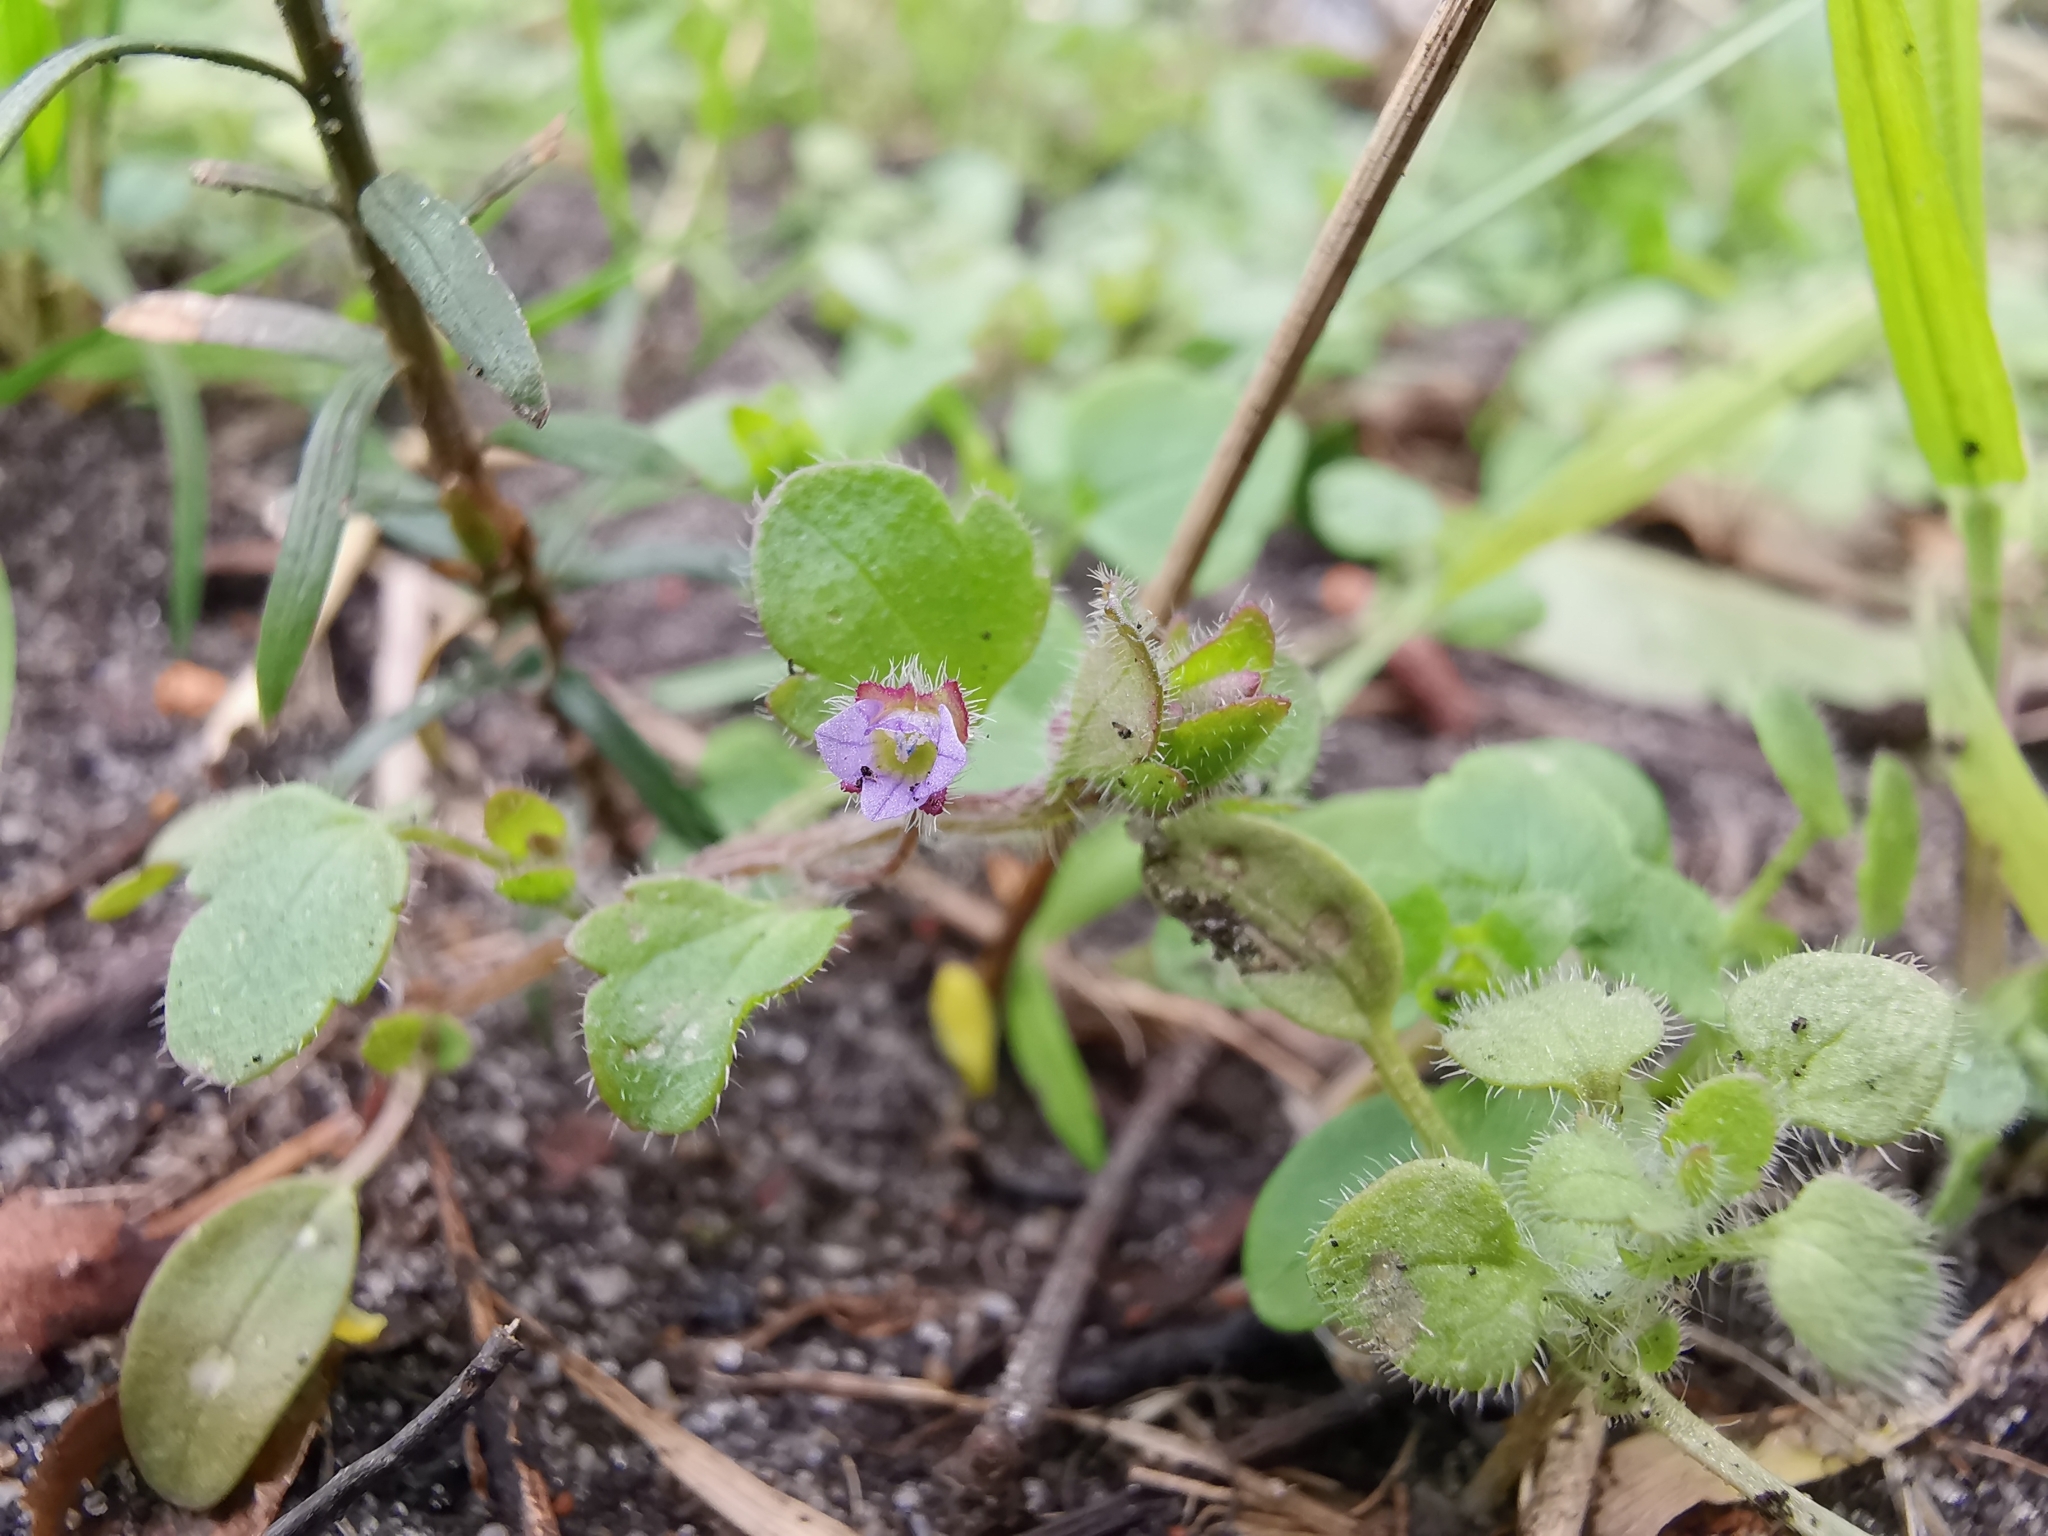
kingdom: Plantae
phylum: Tracheophyta
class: Magnoliopsida
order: Lamiales
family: Plantaginaceae
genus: Veronica
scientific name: Veronica sublobata
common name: False ivy-leaved speedwell
